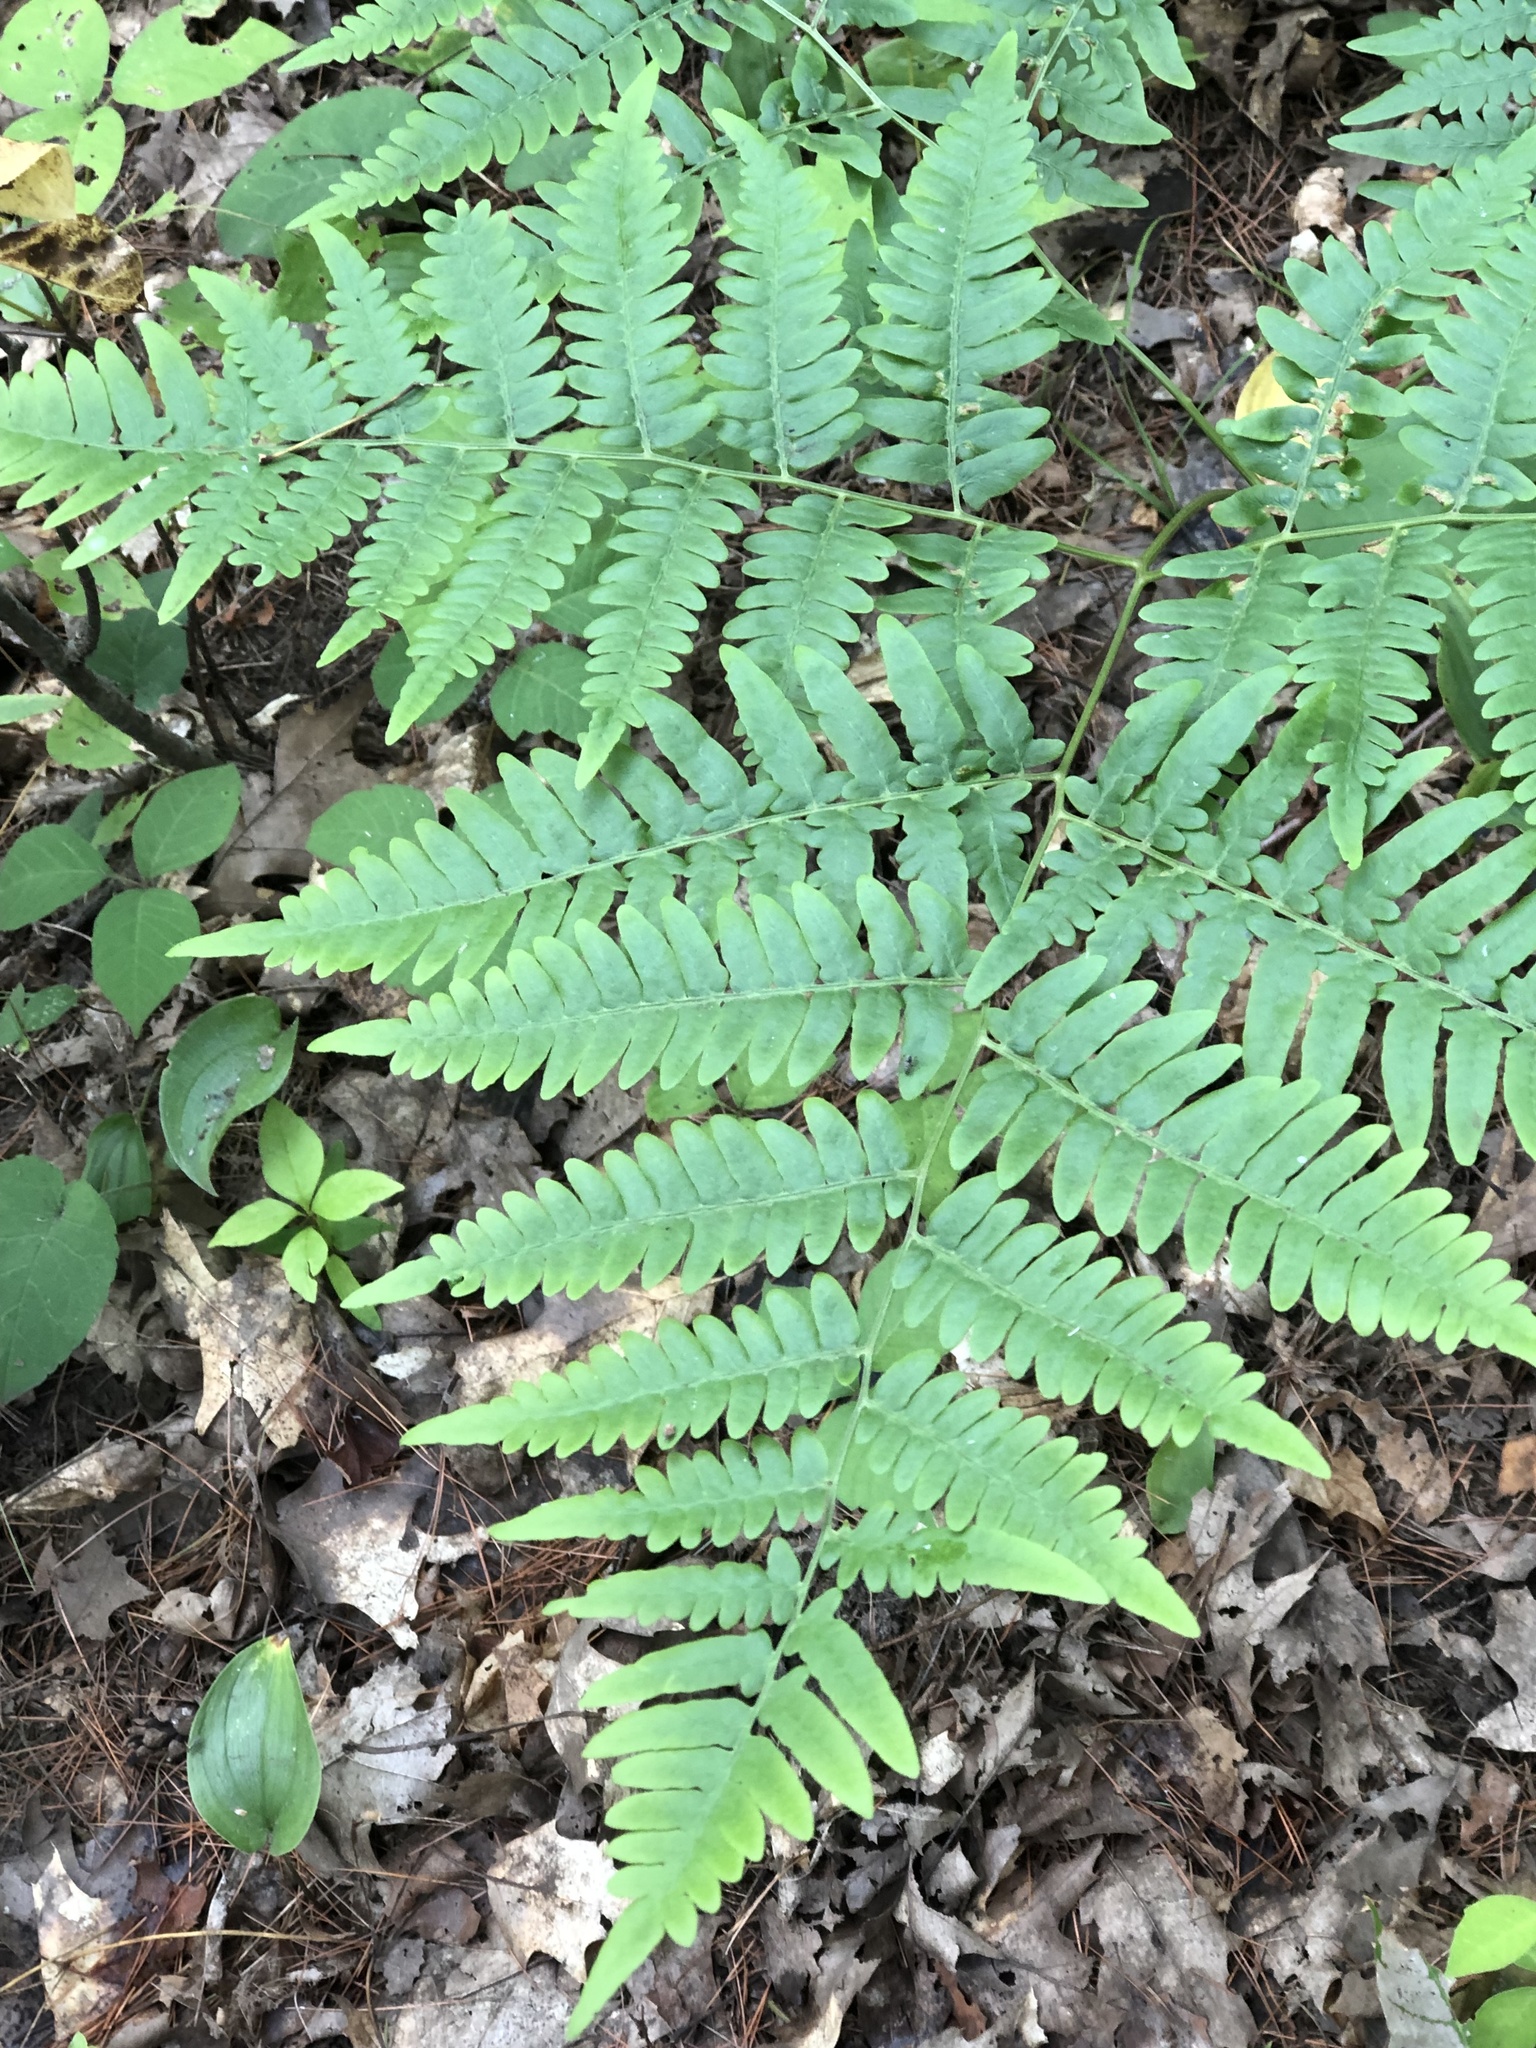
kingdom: Plantae
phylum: Tracheophyta
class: Polypodiopsida
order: Polypodiales
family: Dennstaedtiaceae
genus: Pteridium
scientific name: Pteridium aquilinum
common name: Bracken
